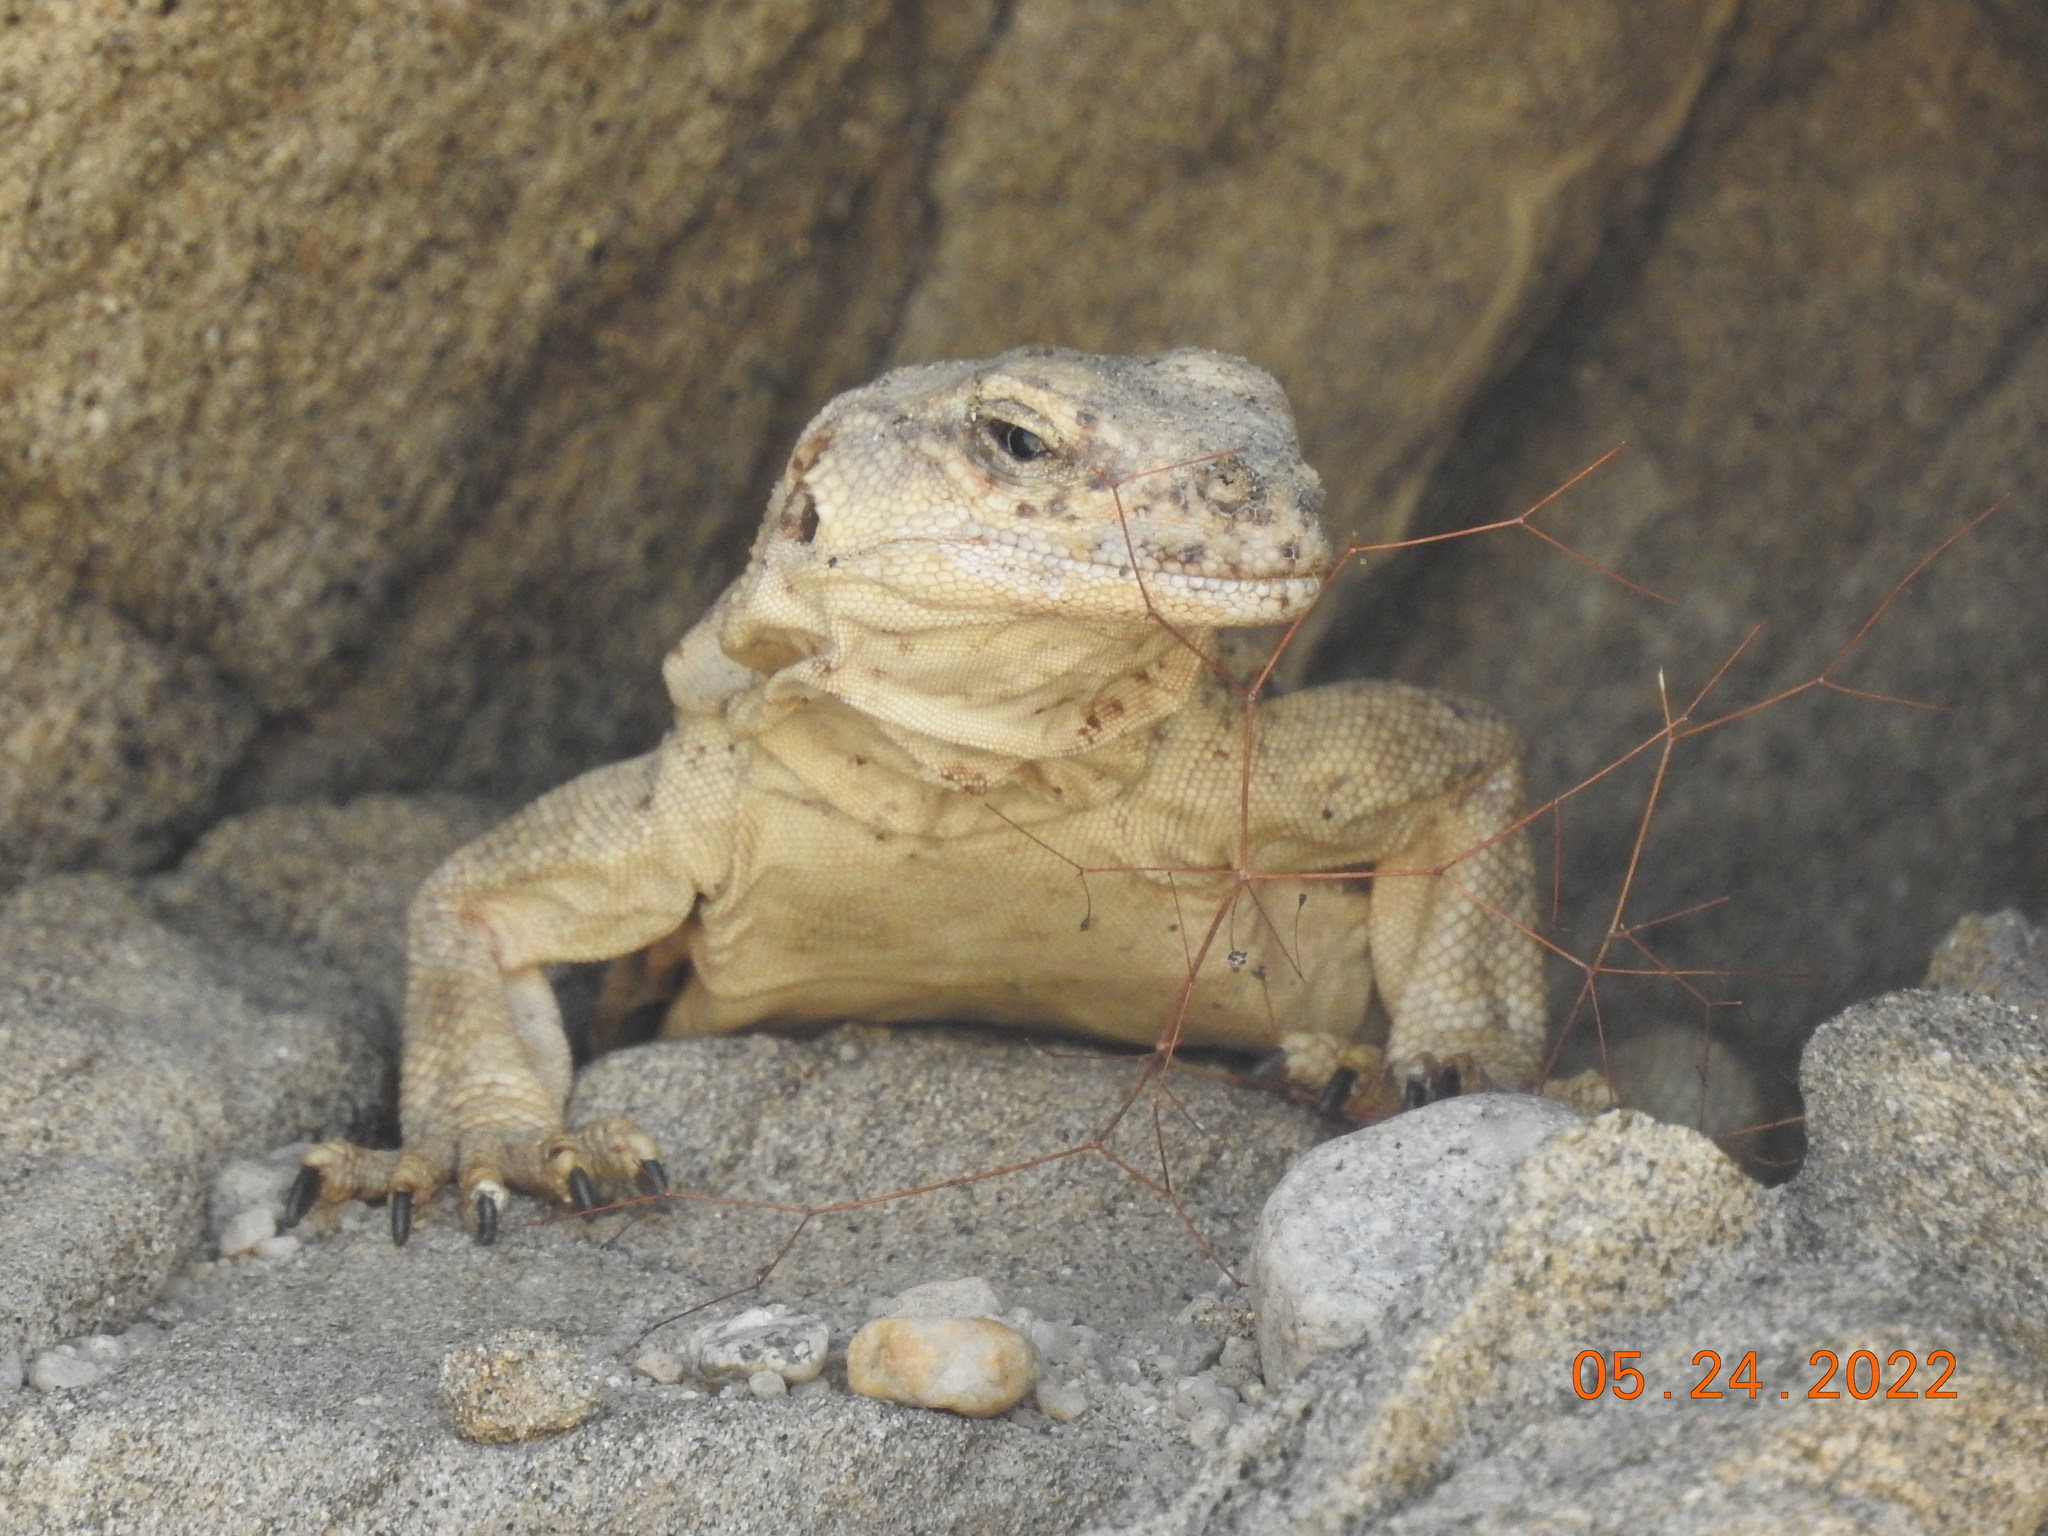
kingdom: Animalia
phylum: Chordata
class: Squamata
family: Iguanidae
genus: Sauromalus
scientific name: Sauromalus ater
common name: Northern chuckwalla
